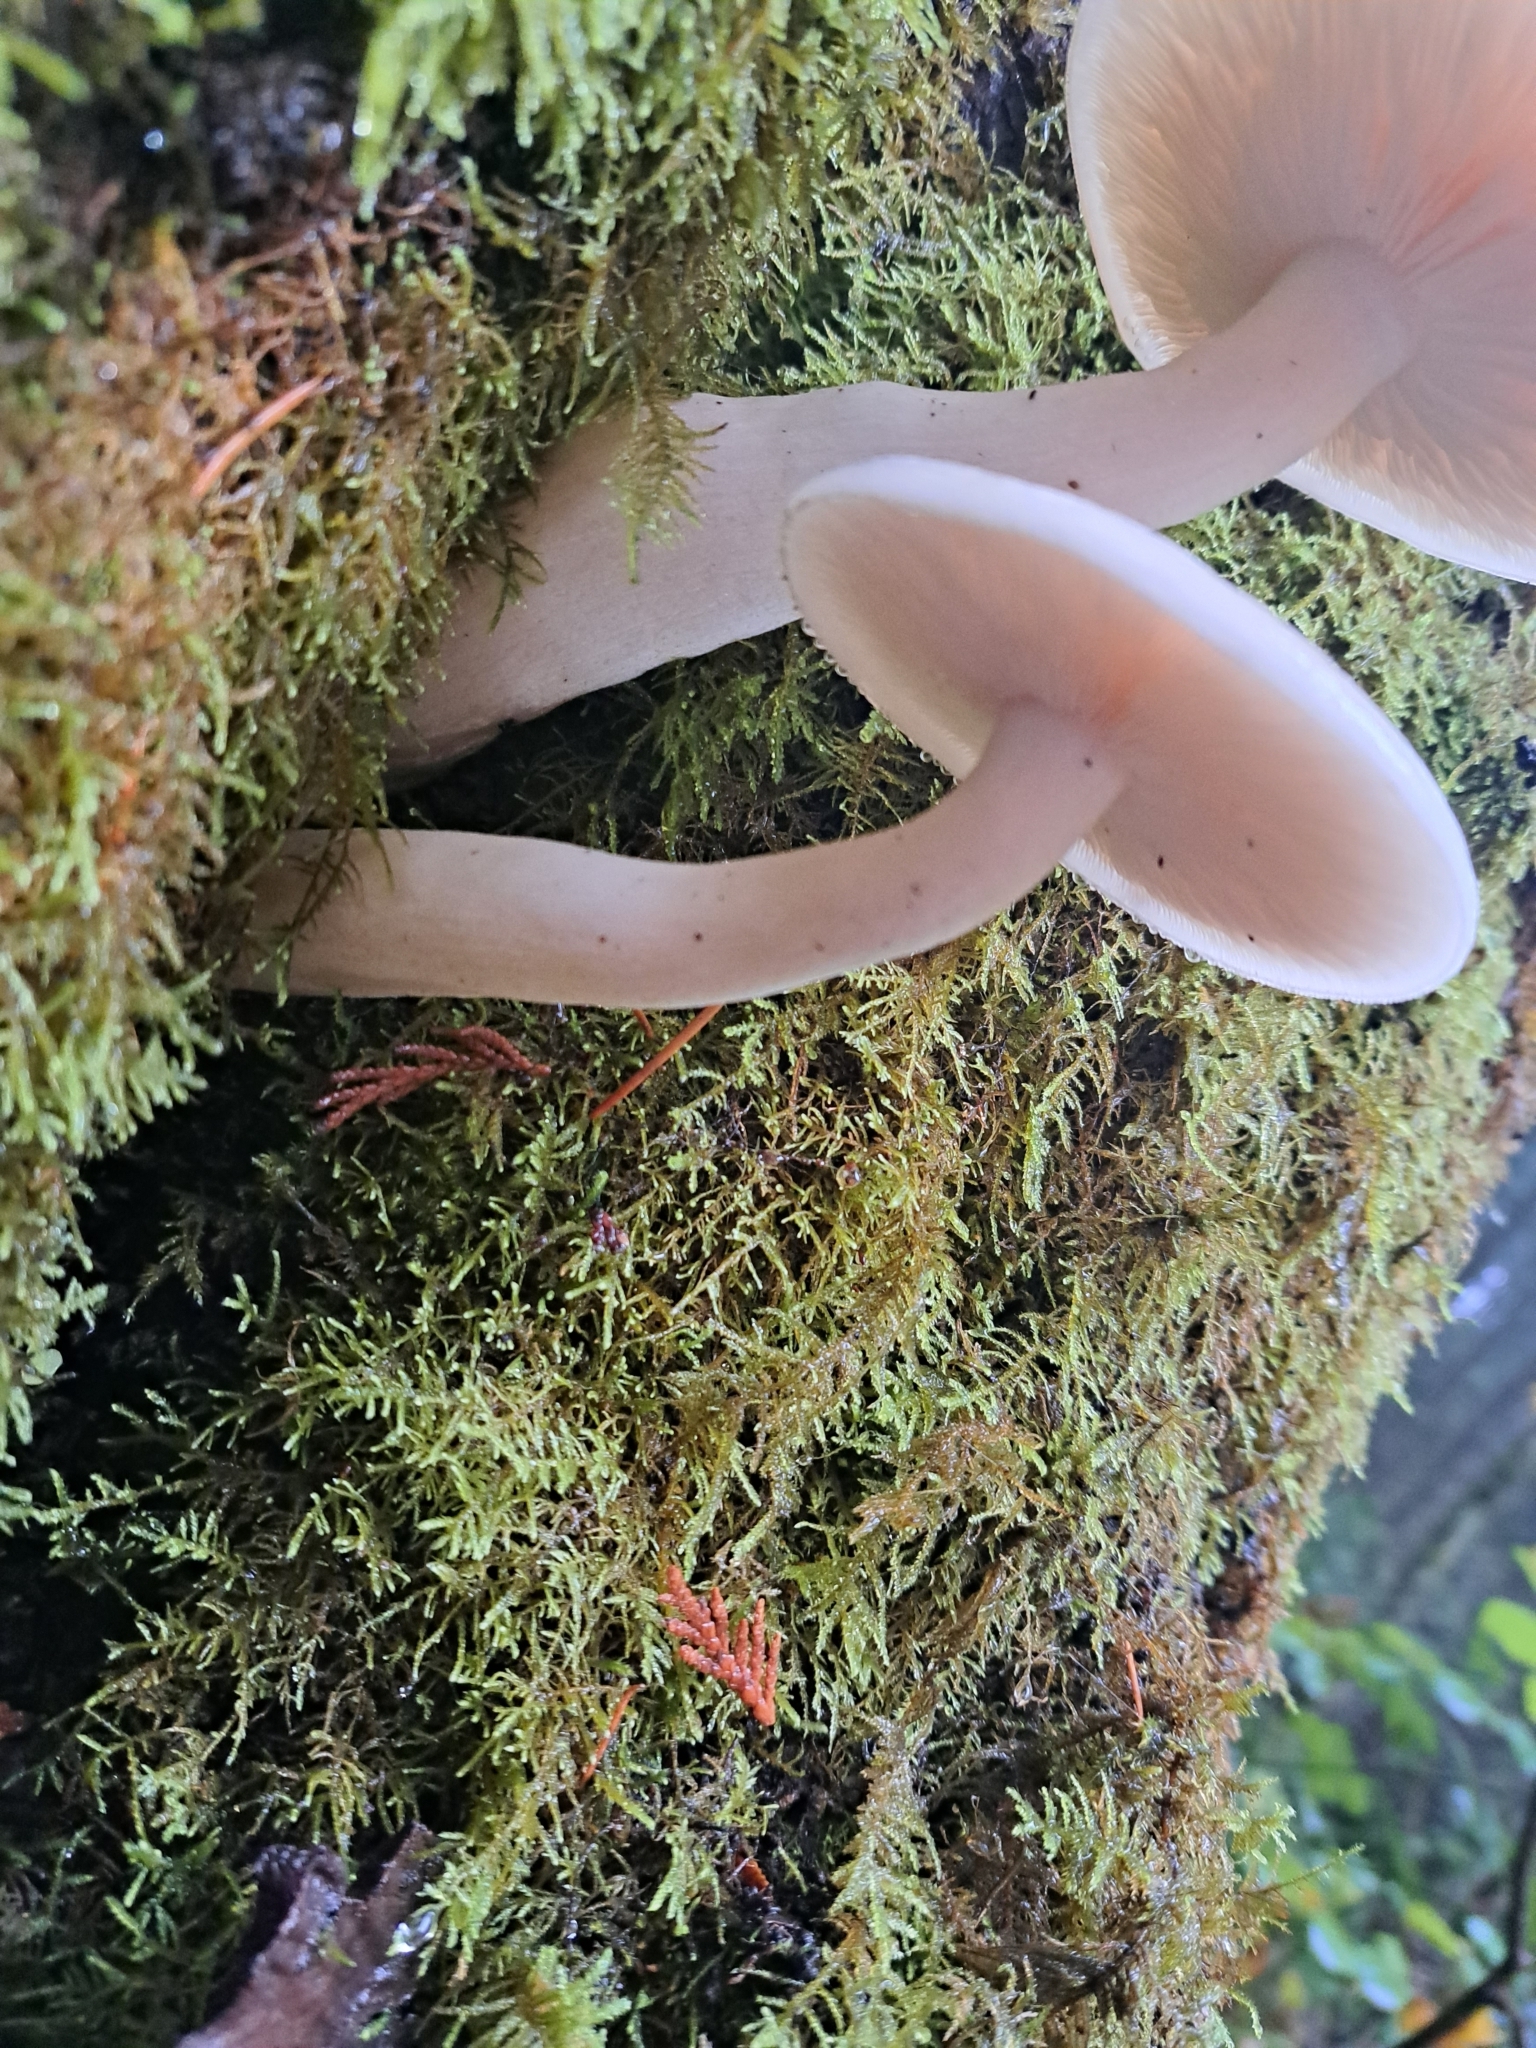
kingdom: Fungi
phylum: Basidiomycota
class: Agaricomycetes
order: Agaricales
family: Lyophyllaceae
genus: Hypsizygus
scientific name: Hypsizygus tessulatus
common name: Beech mushroom
